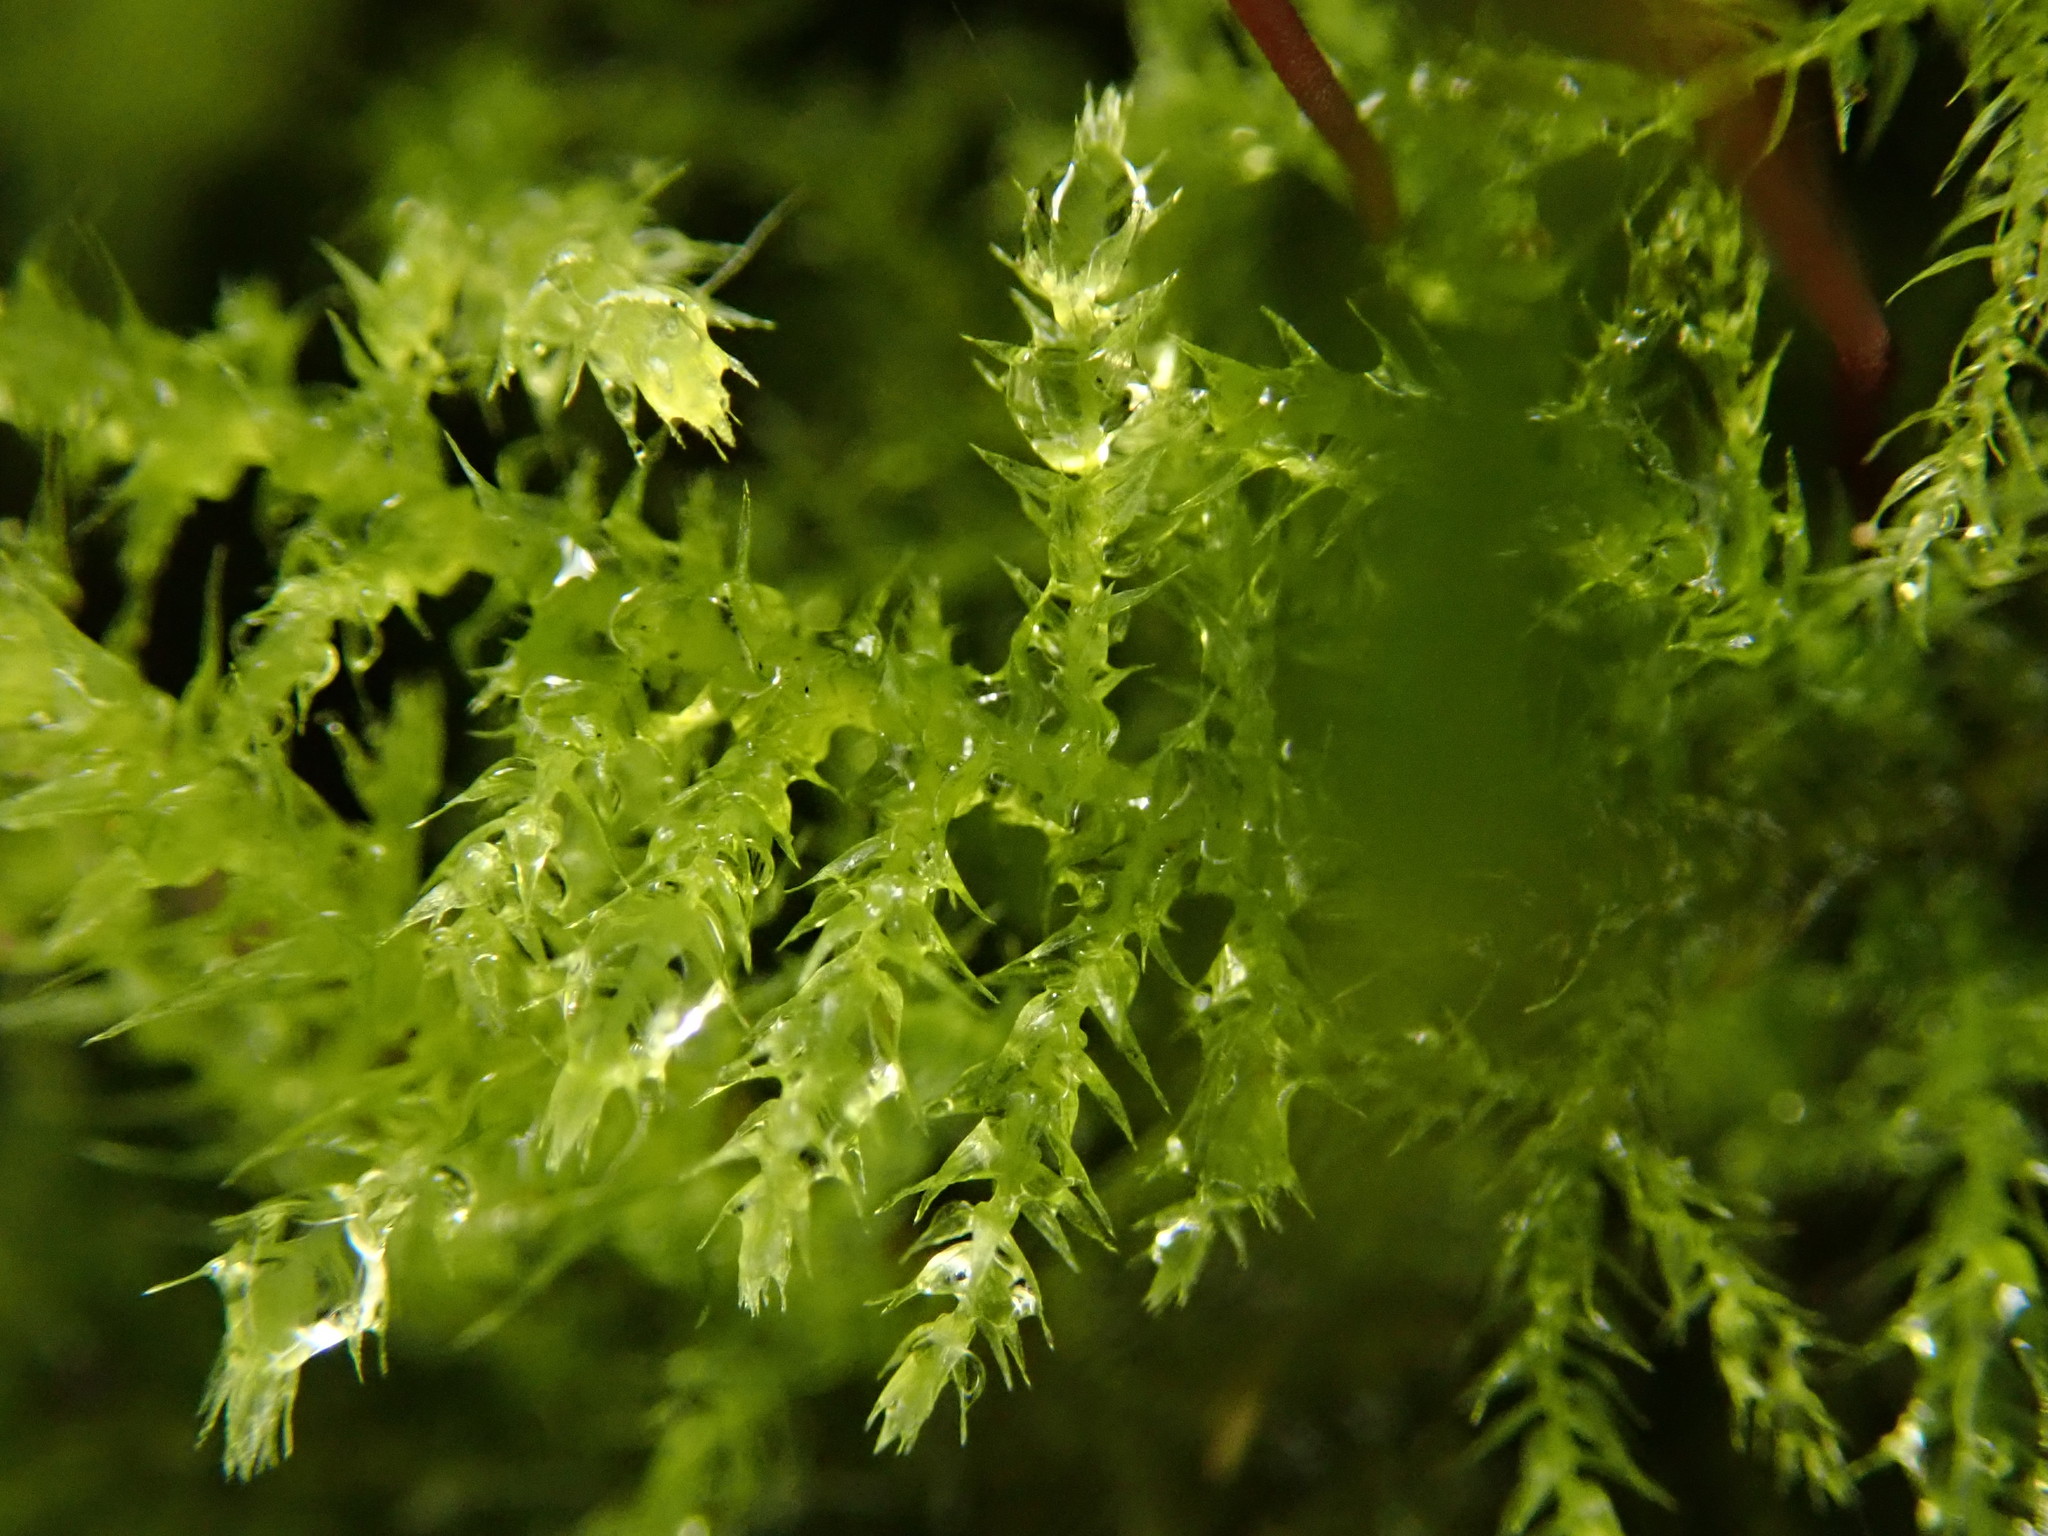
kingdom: Plantae
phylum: Bryophyta
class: Bryopsida
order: Hypnales
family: Brachytheciaceae
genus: Kindbergia
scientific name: Kindbergia praelonga
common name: Slender beaked moss
